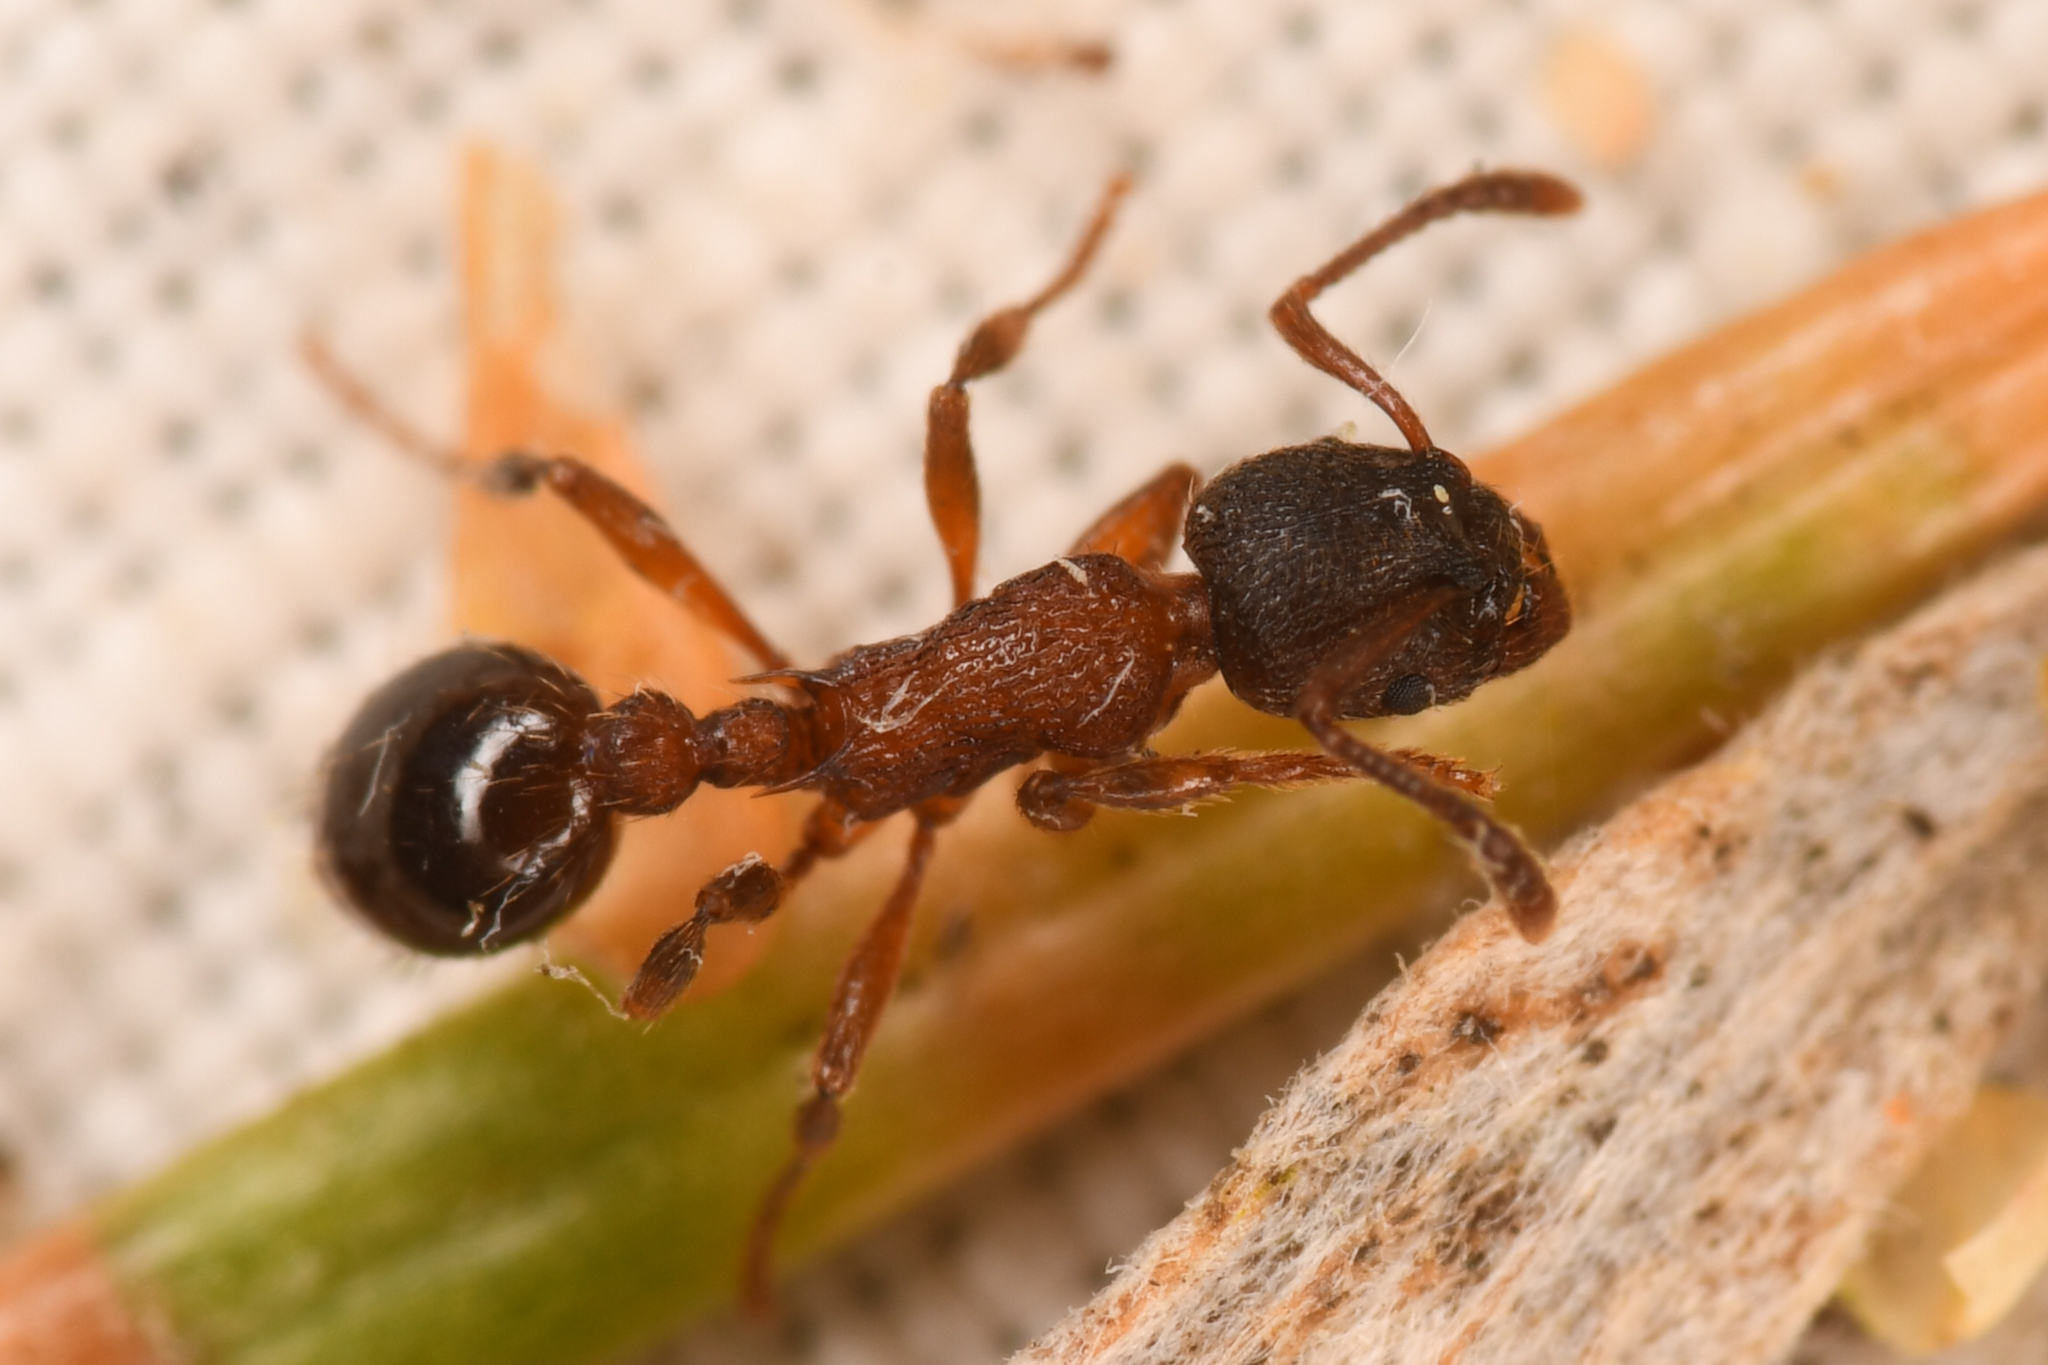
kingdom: Animalia
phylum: Arthropoda
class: Insecta
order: Hymenoptera
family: Formicidae
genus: Myrmica
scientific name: Myrmica incompleta
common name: Incomplete ant
